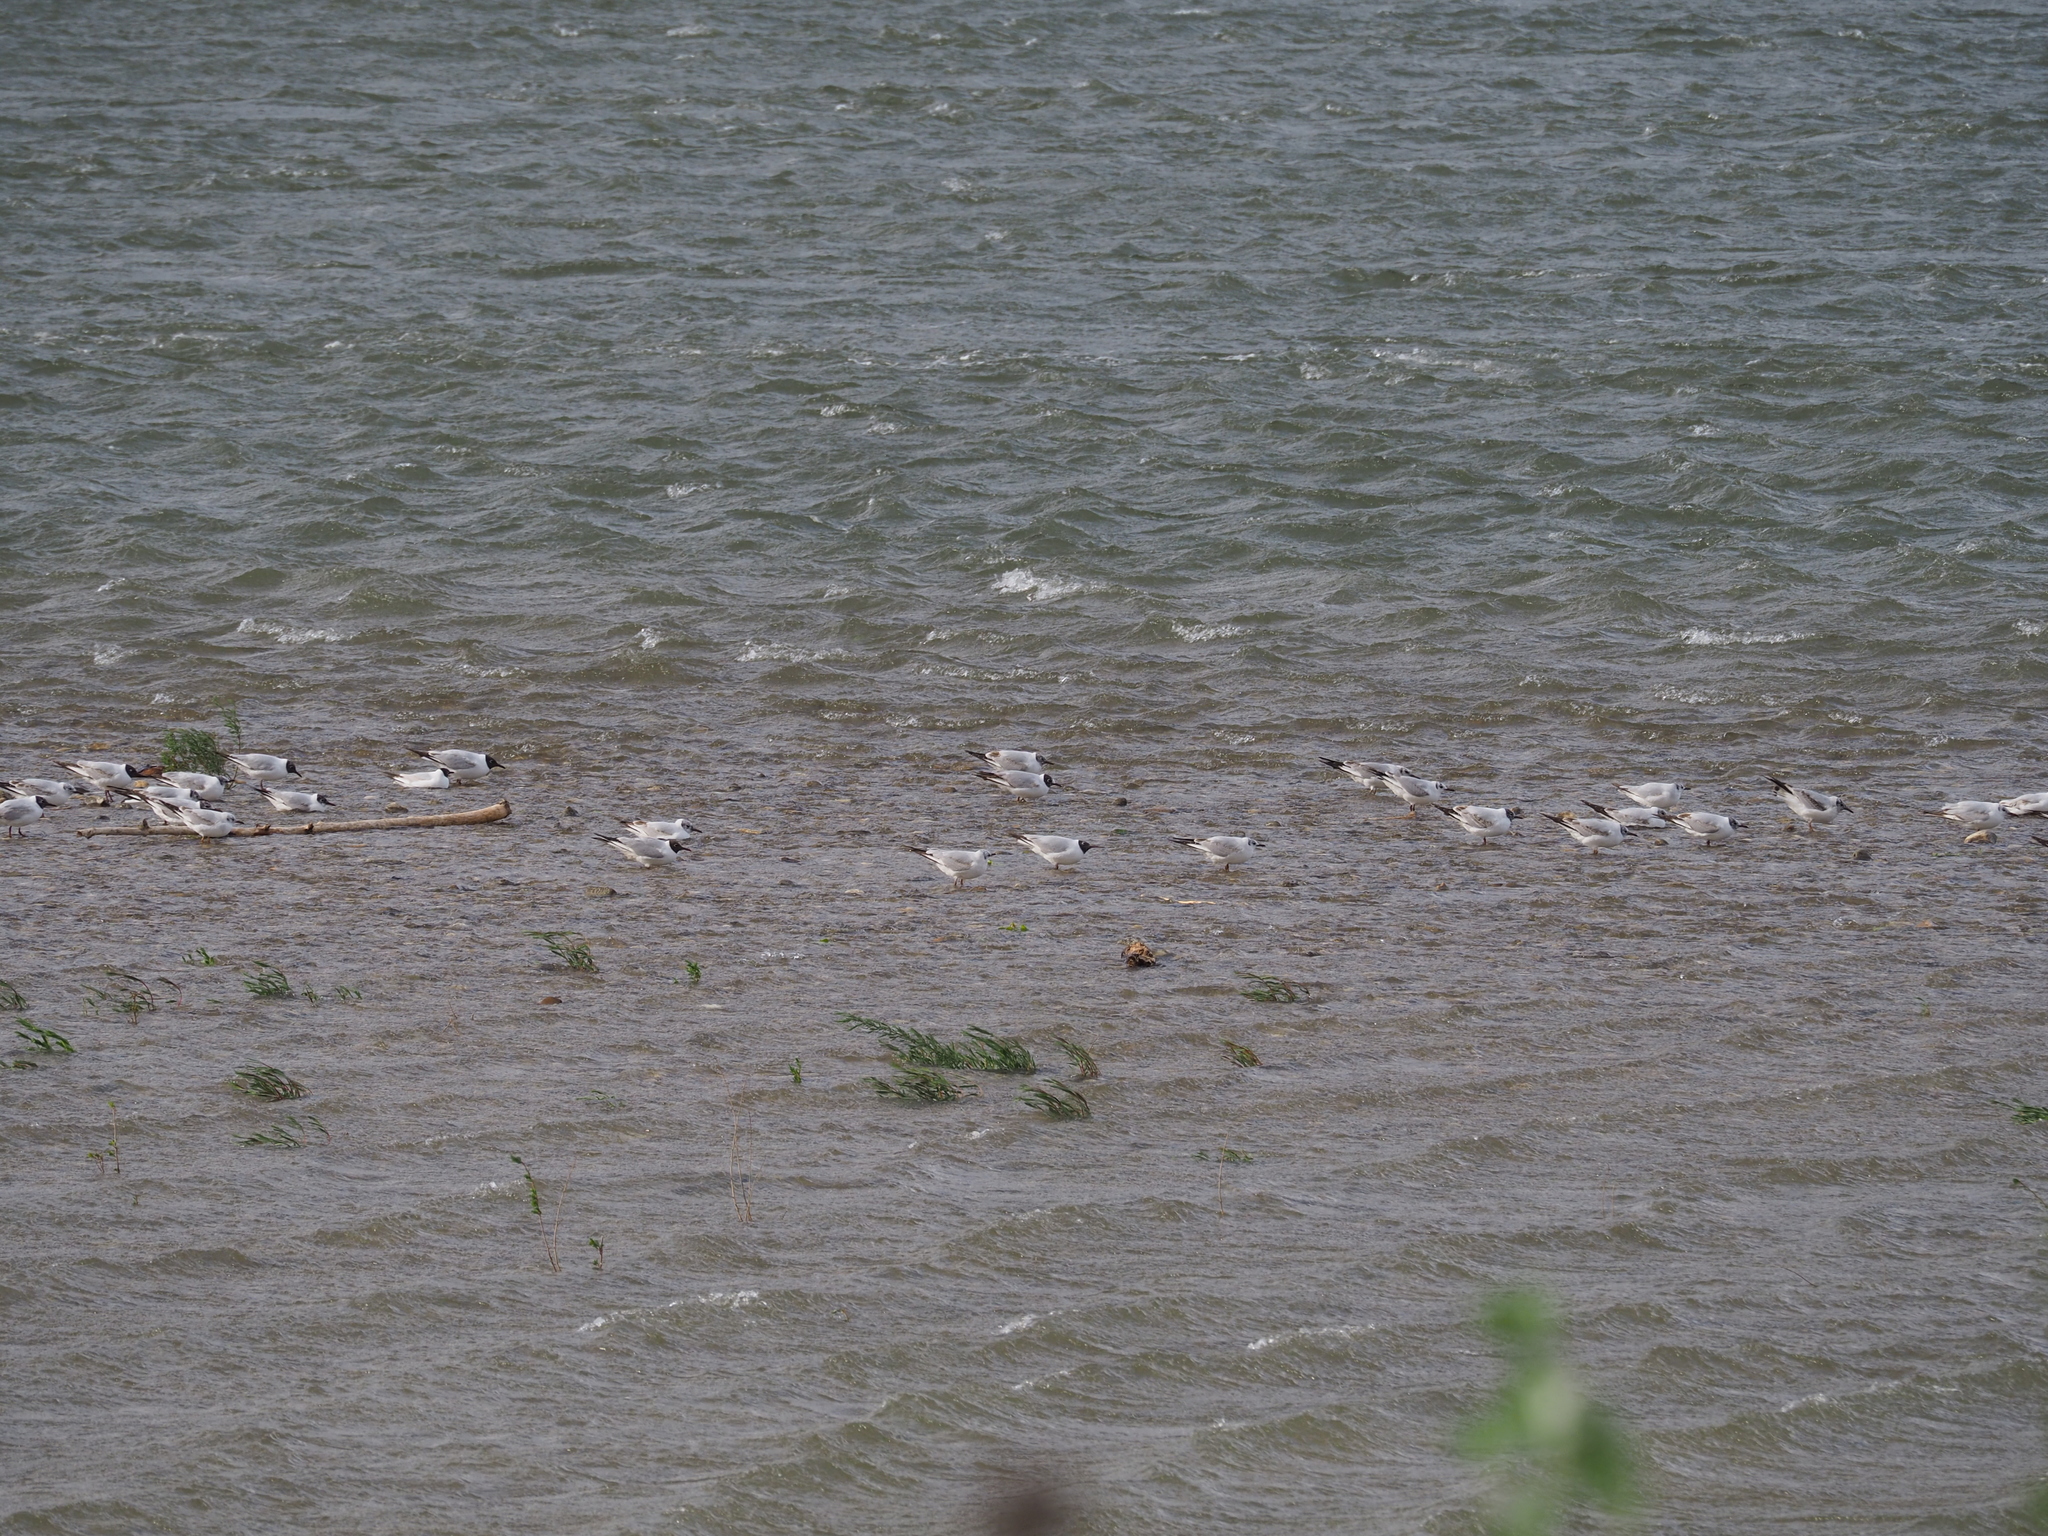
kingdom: Animalia
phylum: Chordata
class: Aves
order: Charadriiformes
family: Laridae
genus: Chroicocephalus
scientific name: Chroicocephalus ridibundus
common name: Black-headed gull
